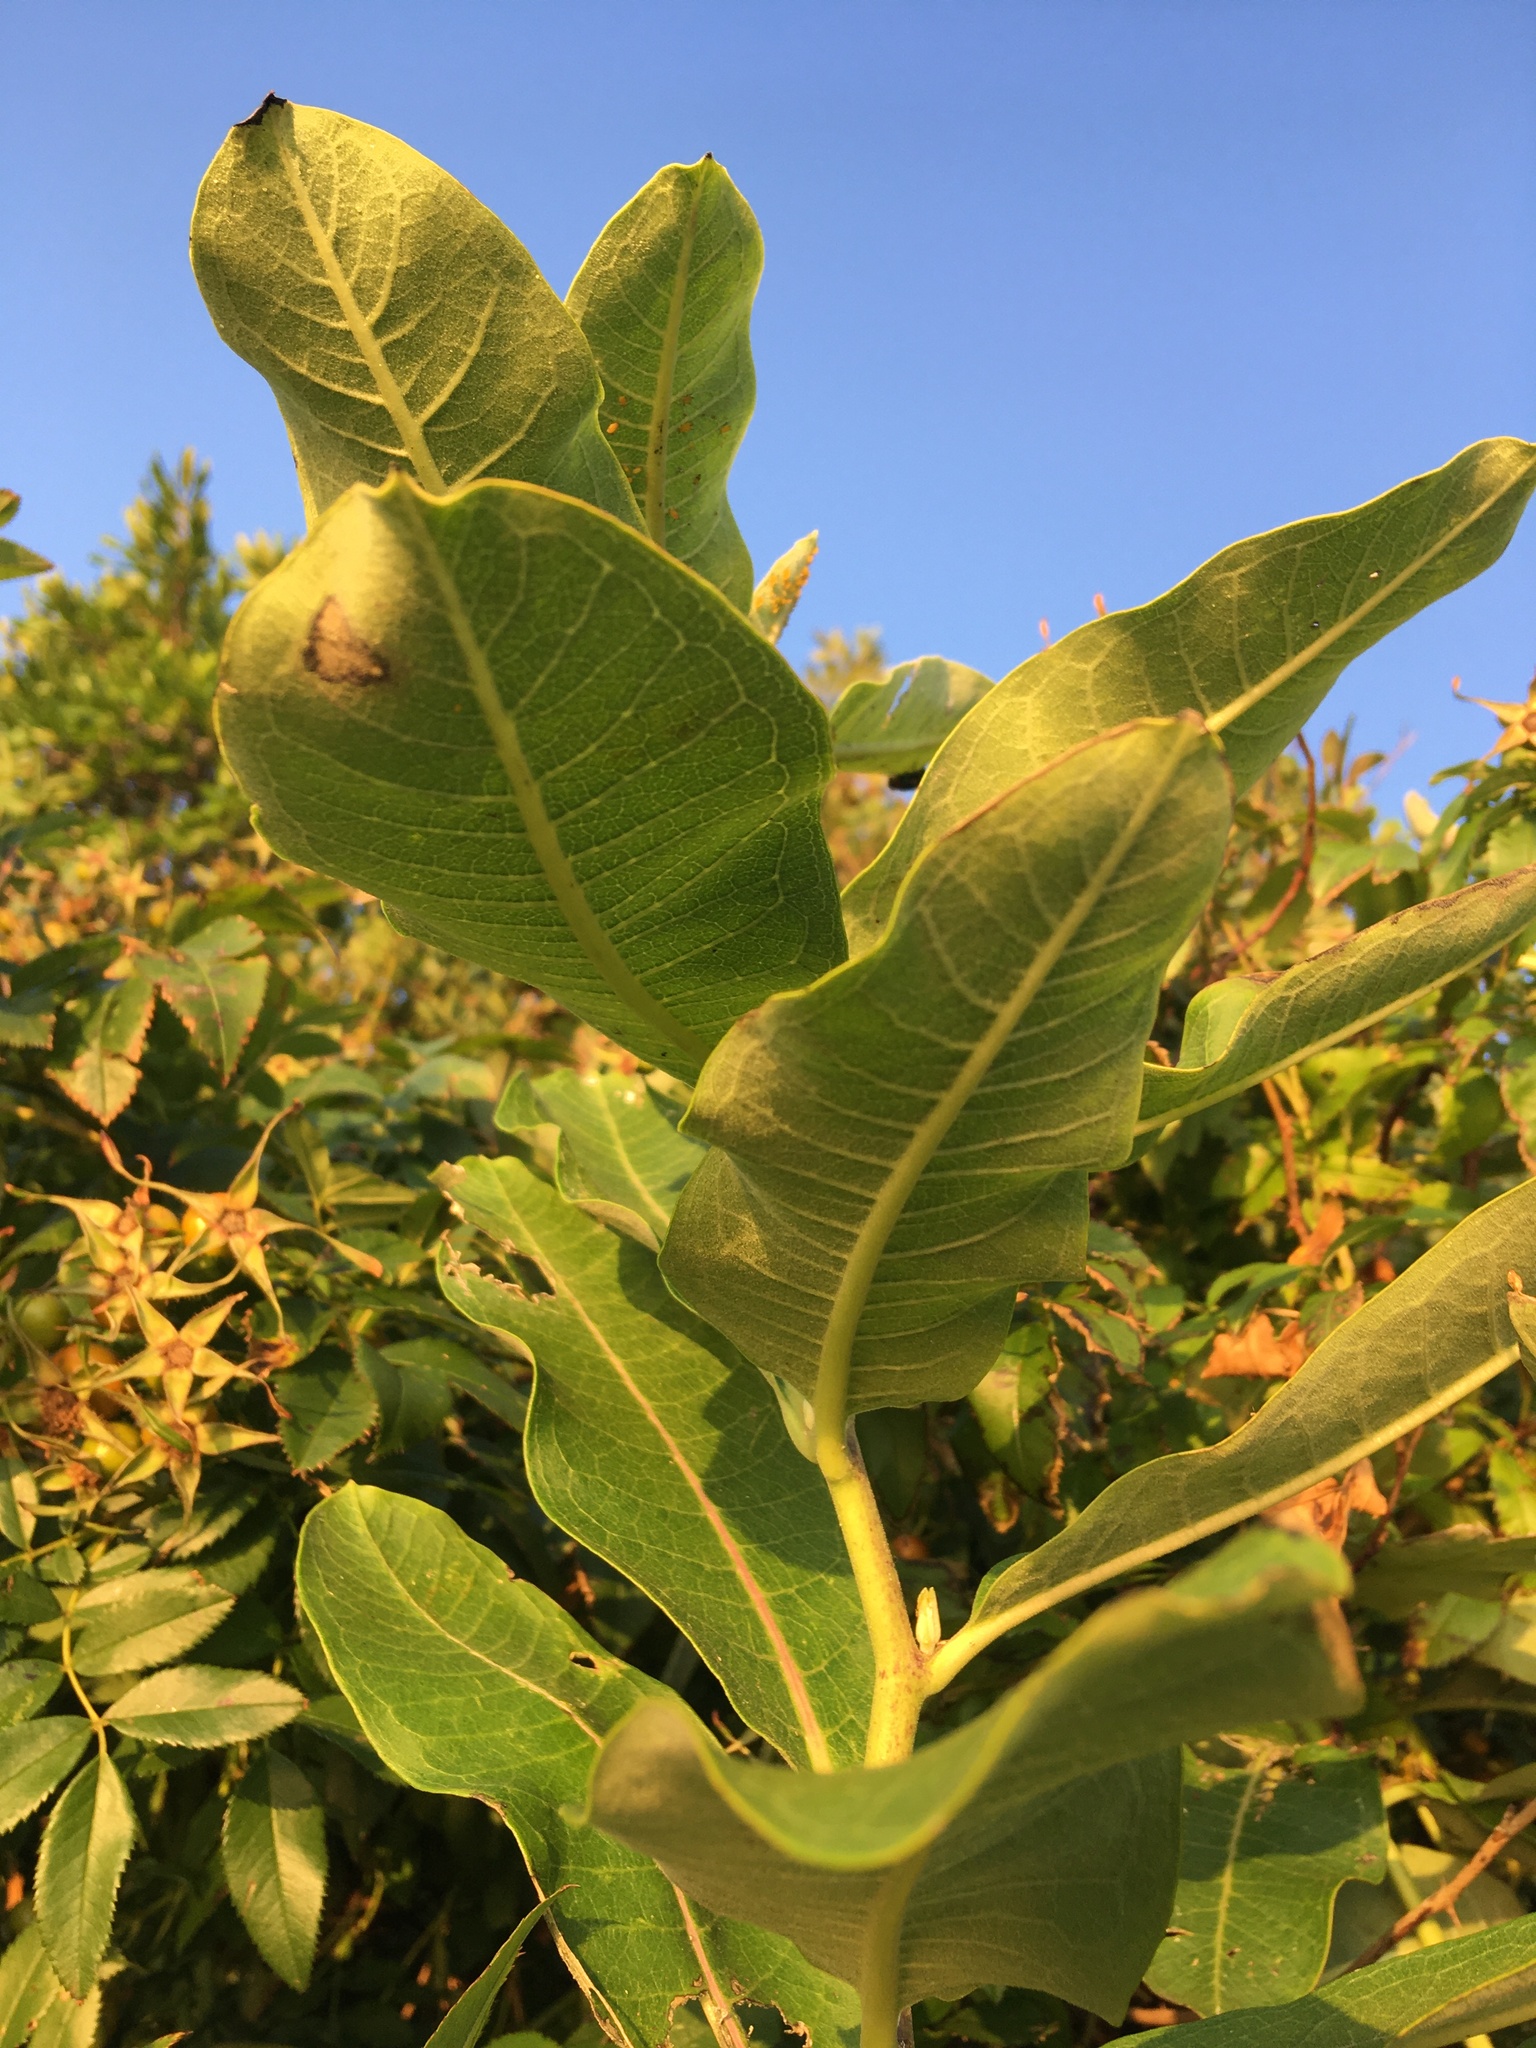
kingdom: Plantae
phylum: Tracheophyta
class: Magnoliopsida
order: Gentianales
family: Apocynaceae
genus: Asclepias
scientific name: Asclepias syriaca
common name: Common milkweed
